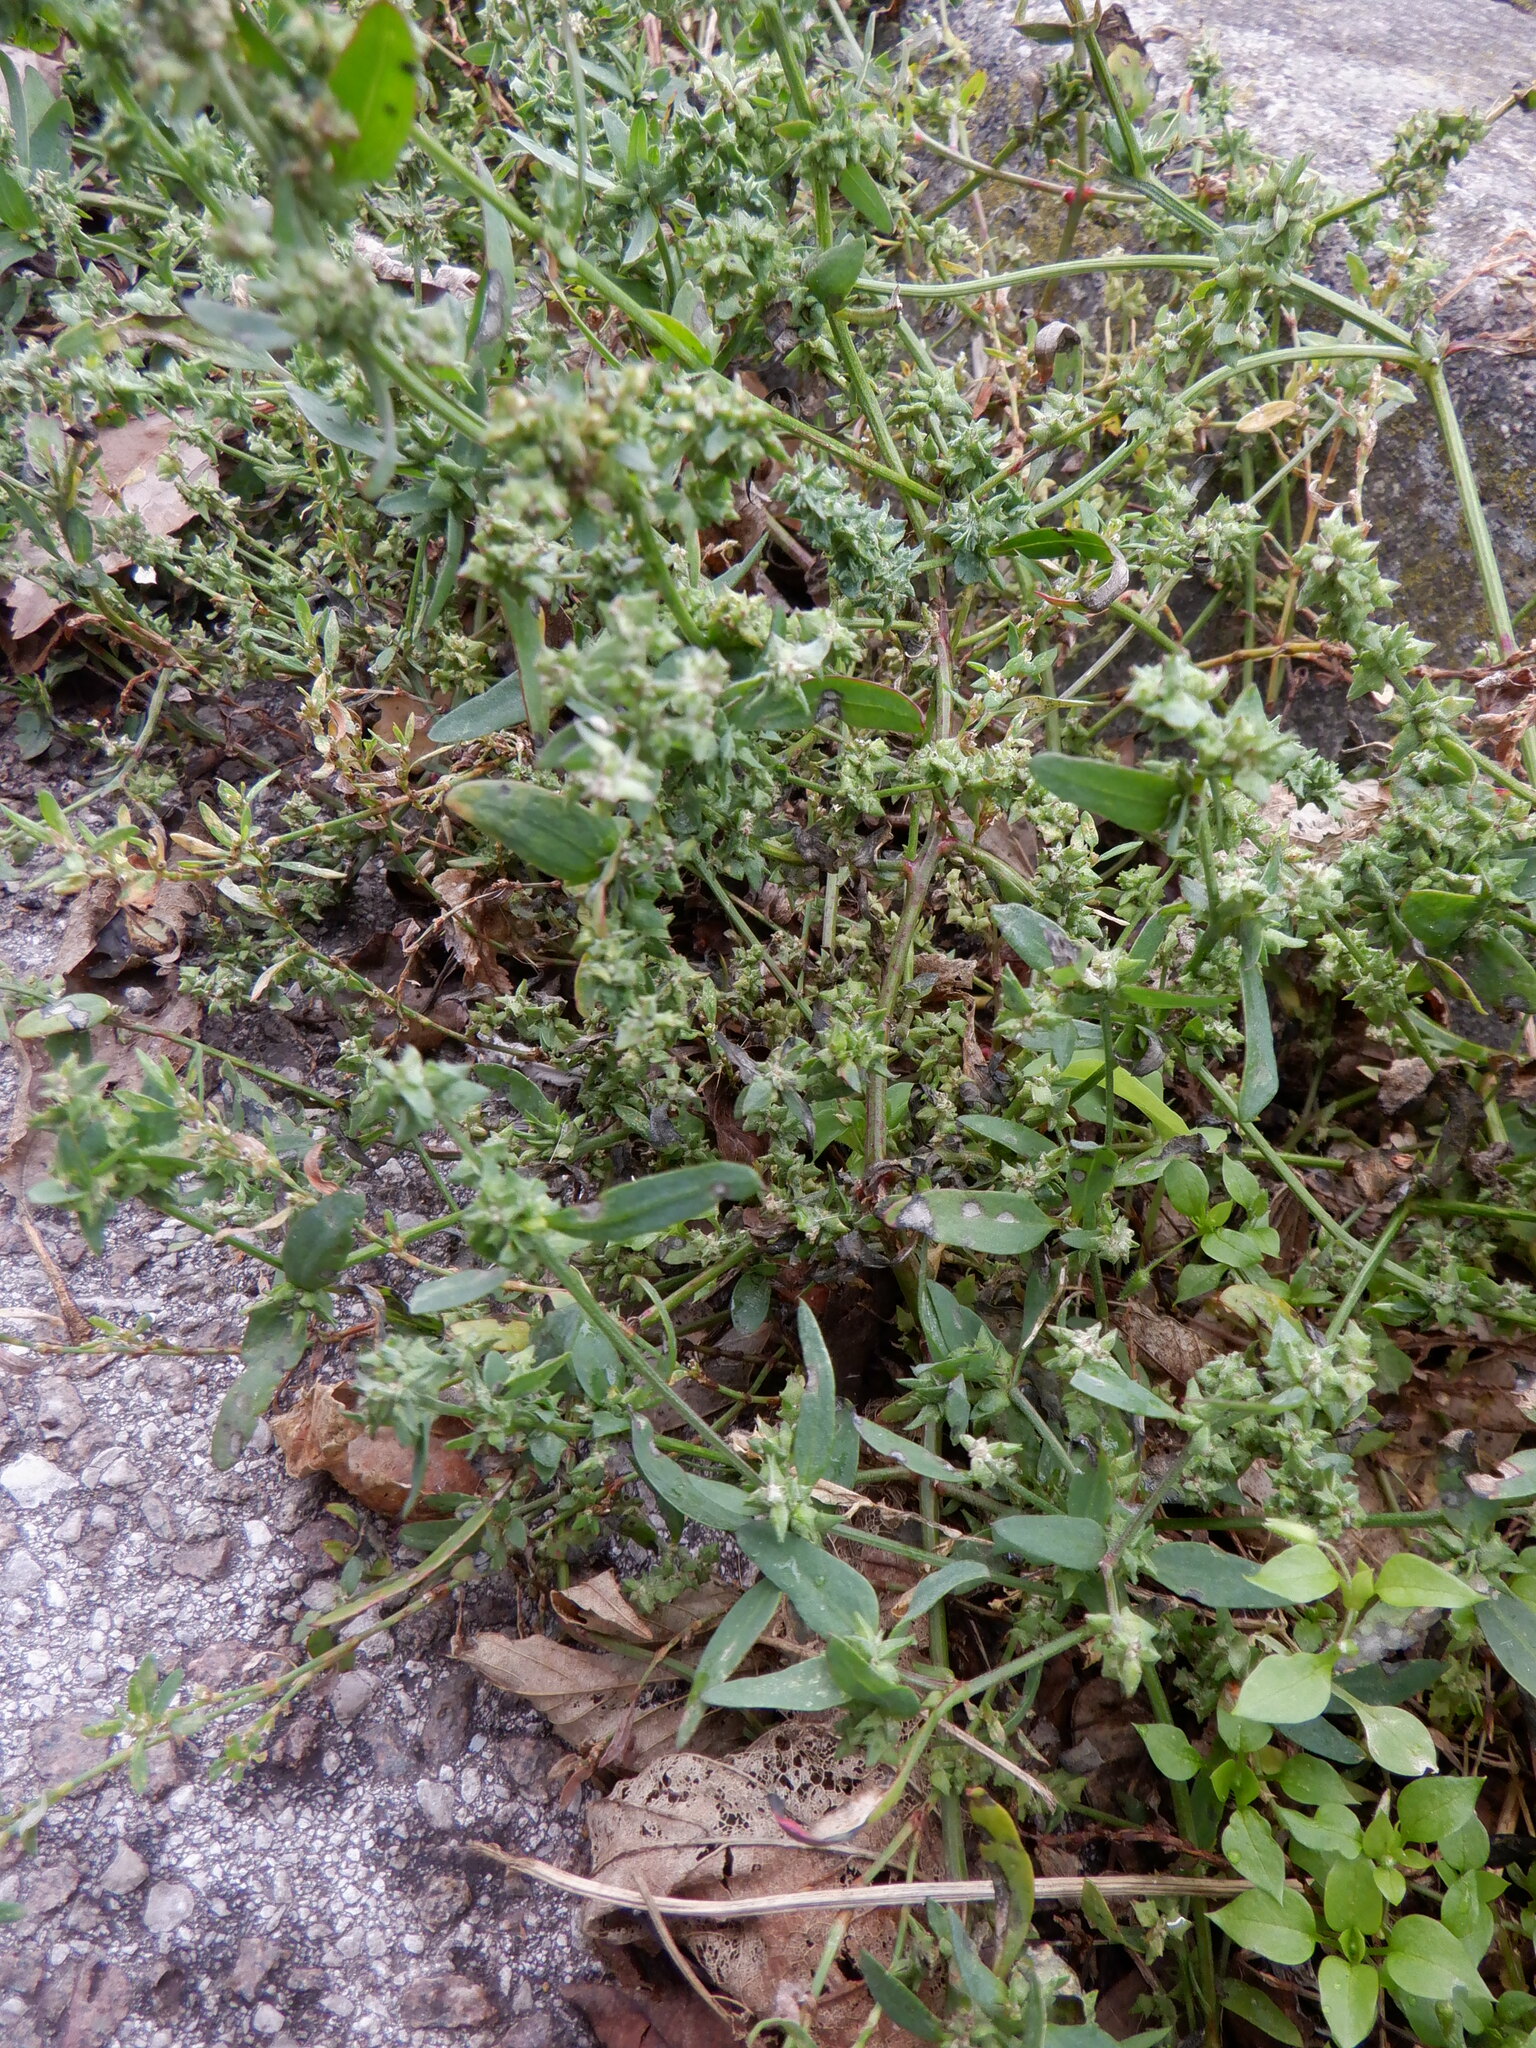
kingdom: Plantae
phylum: Tracheophyta
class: Magnoliopsida
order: Caryophyllales
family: Amaranthaceae
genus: Atriplex
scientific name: Atriplex patula
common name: Common orache
